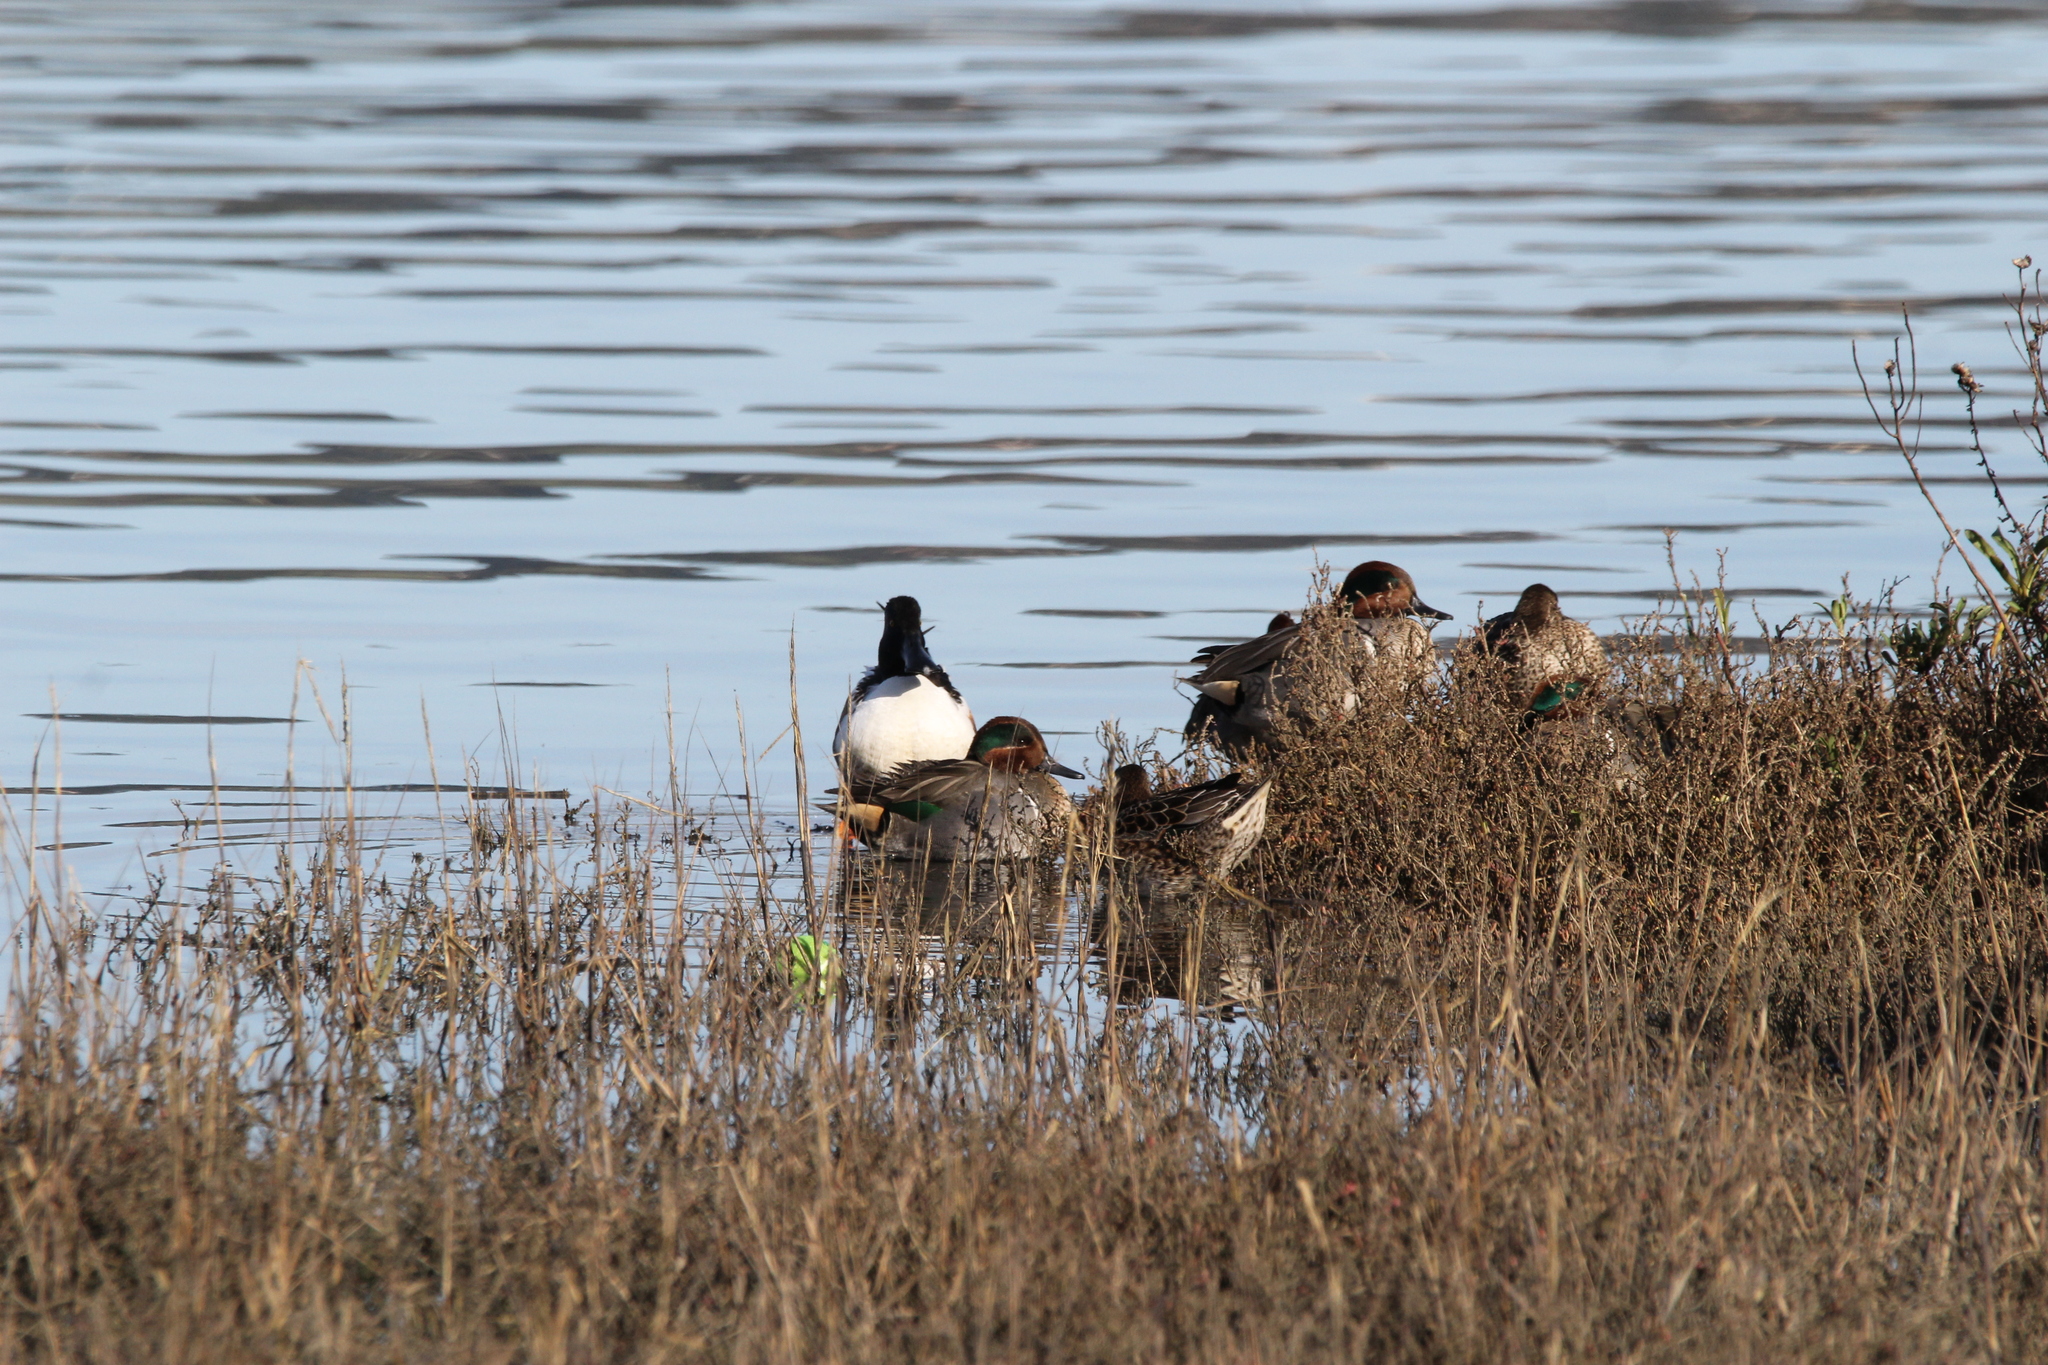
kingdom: Animalia
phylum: Chordata
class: Aves
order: Anseriformes
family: Anatidae
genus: Anas
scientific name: Anas crecca
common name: Eurasian teal
